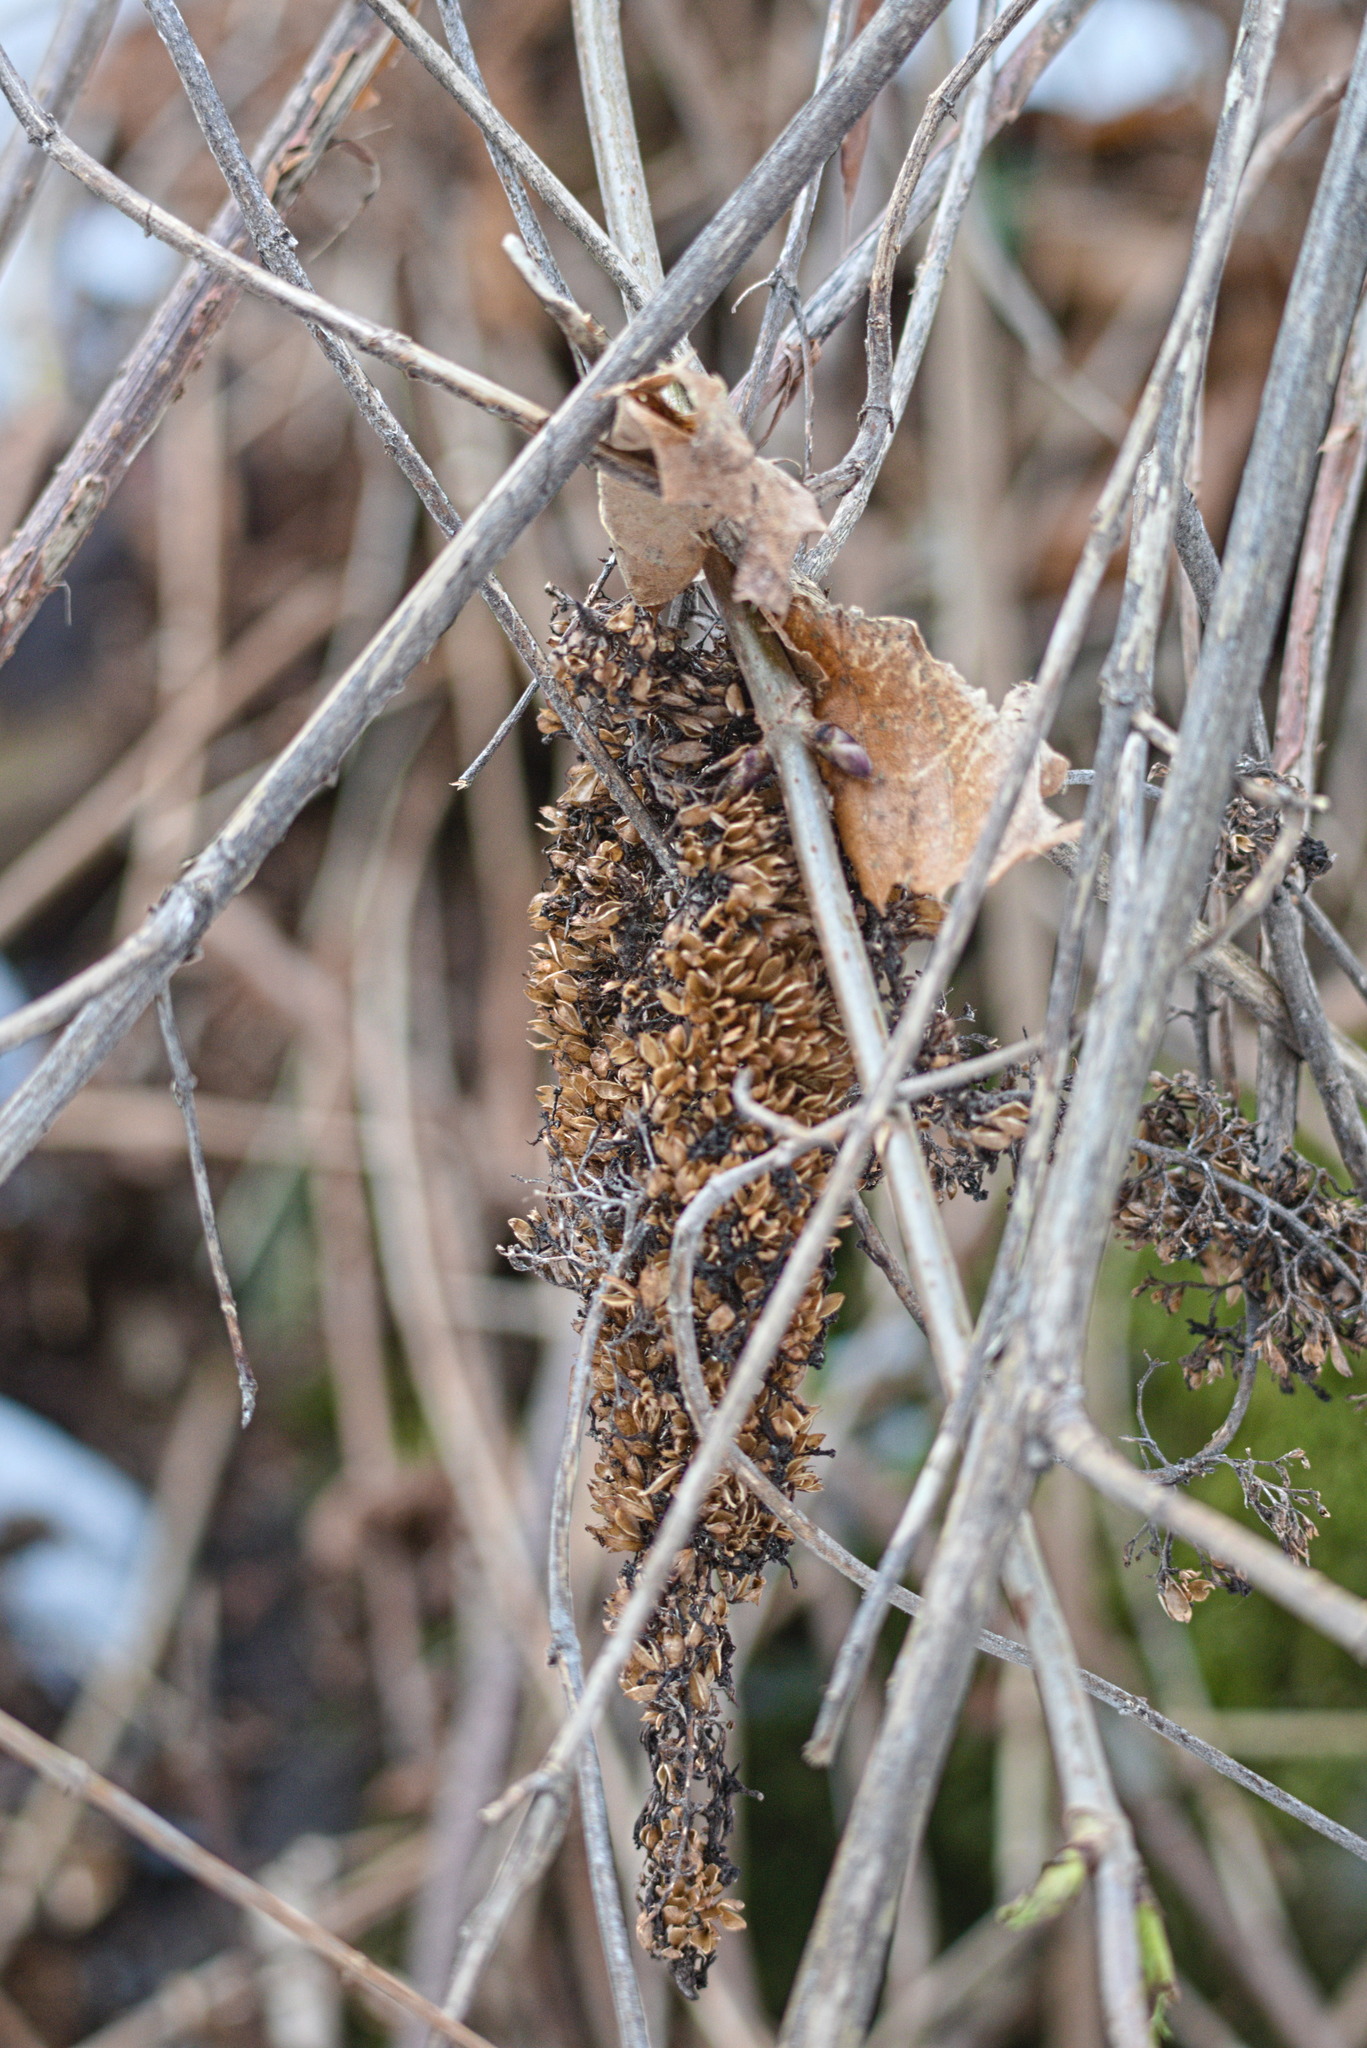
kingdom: Plantae
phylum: Tracheophyta
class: Magnoliopsida
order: Lamiales
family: Scrophulariaceae
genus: Buddleja
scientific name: Buddleja davidii
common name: Butterfly-bush
